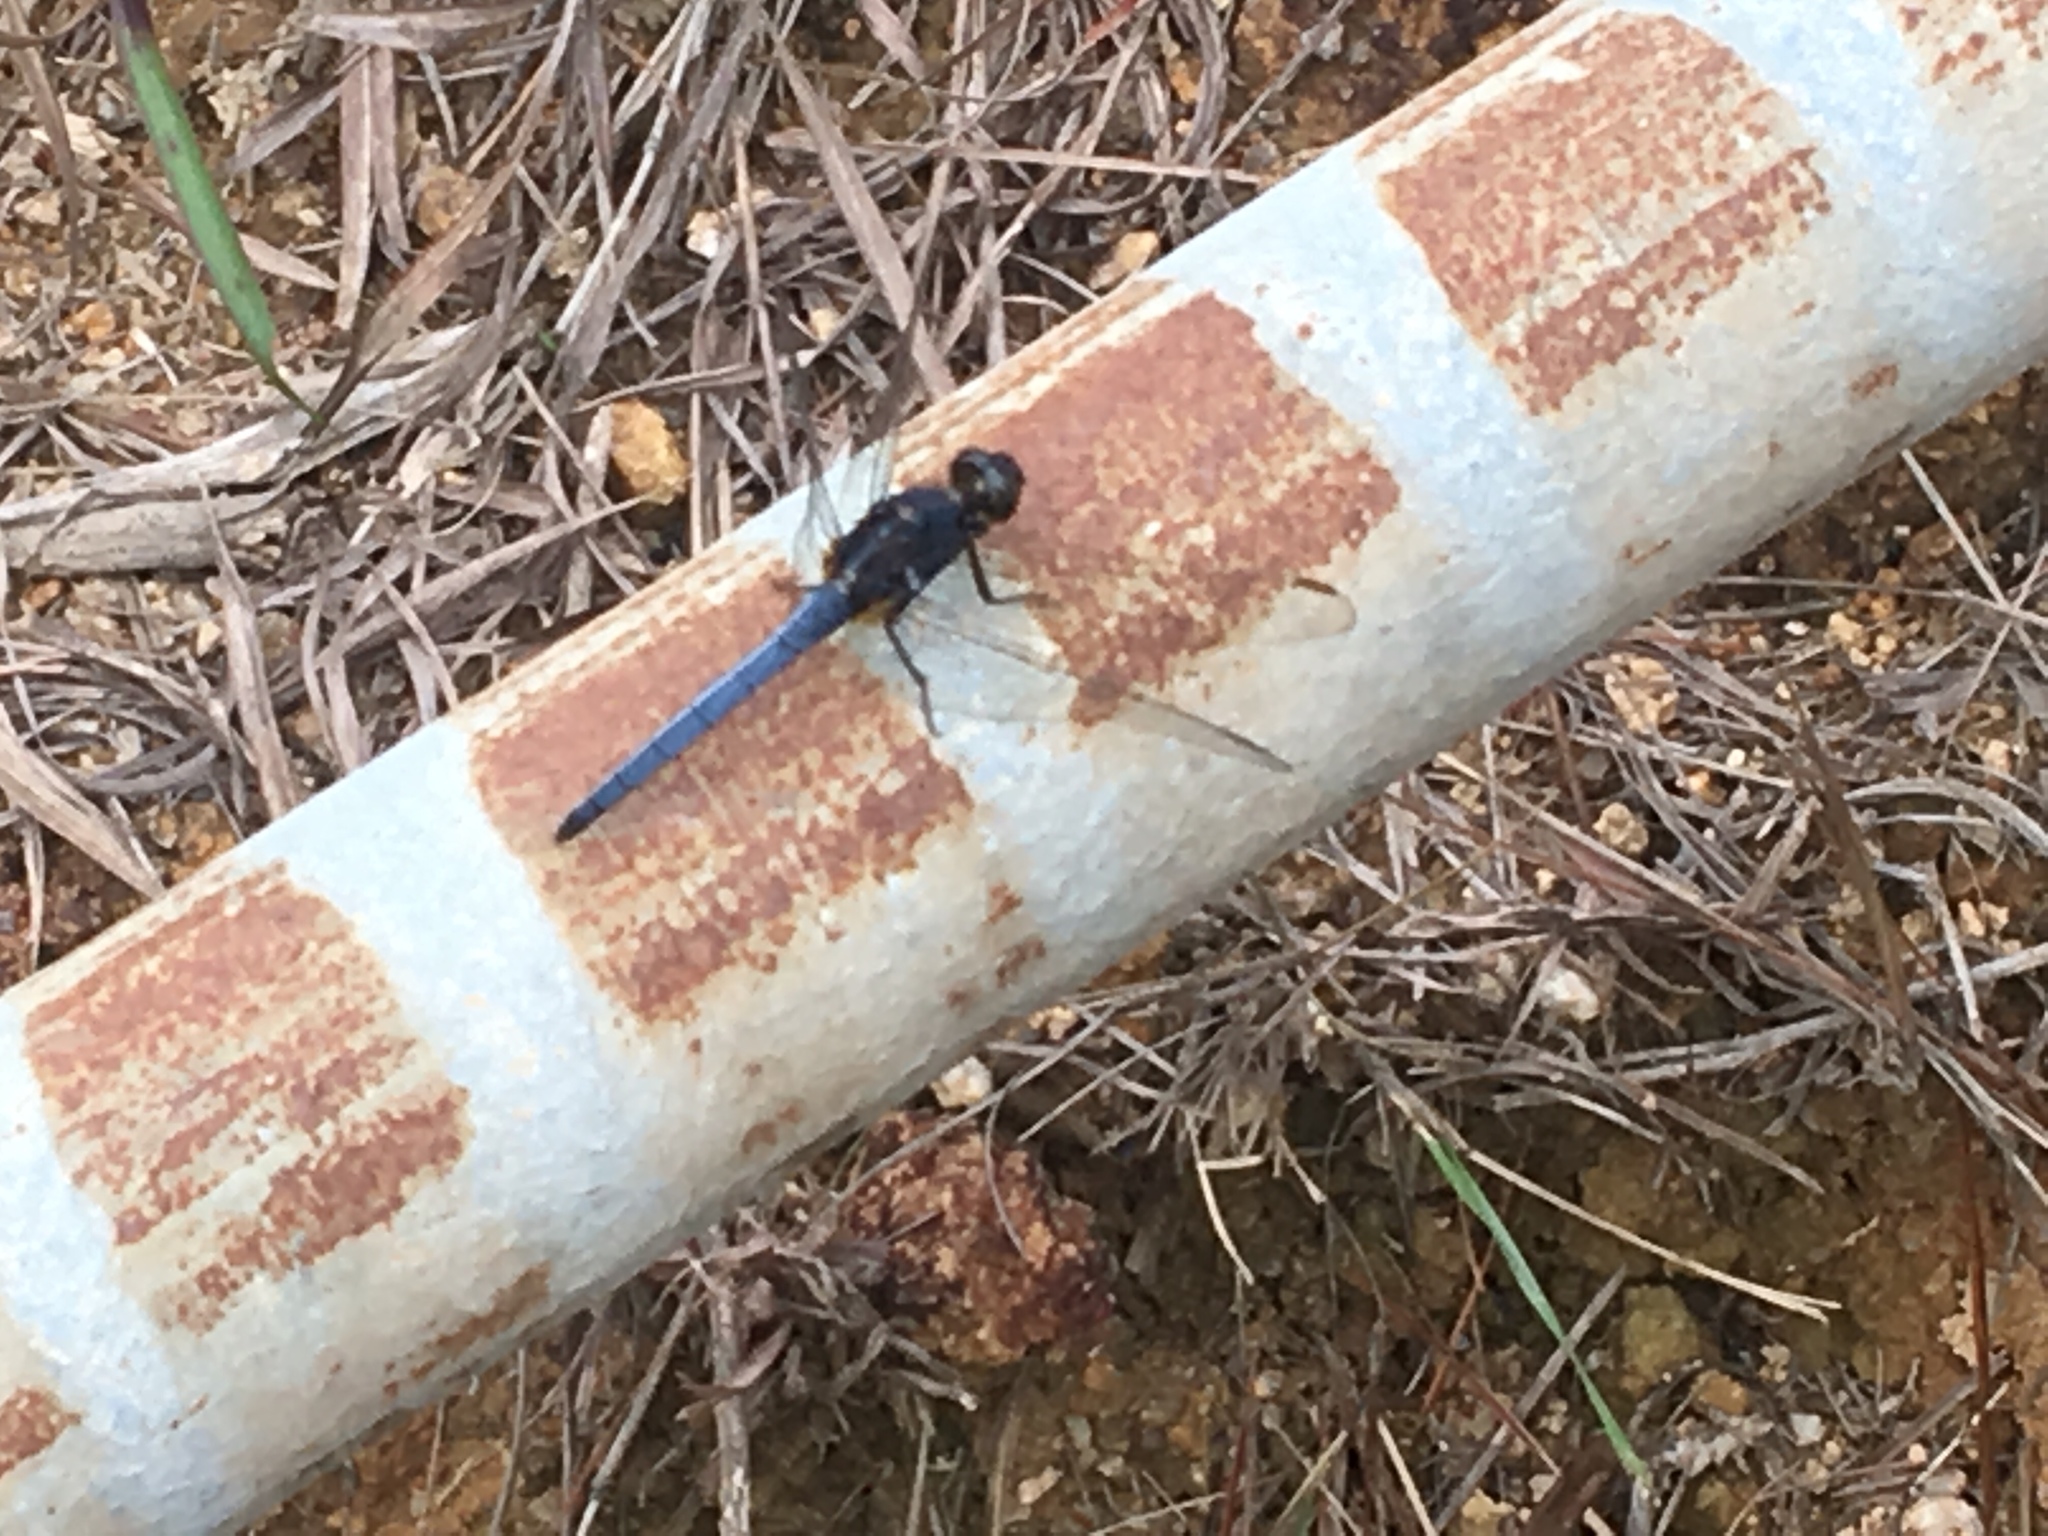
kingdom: Animalia
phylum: Arthropoda
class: Insecta
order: Odonata
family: Libellulidae
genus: Orthetrum
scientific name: Orthetrum glaucum
